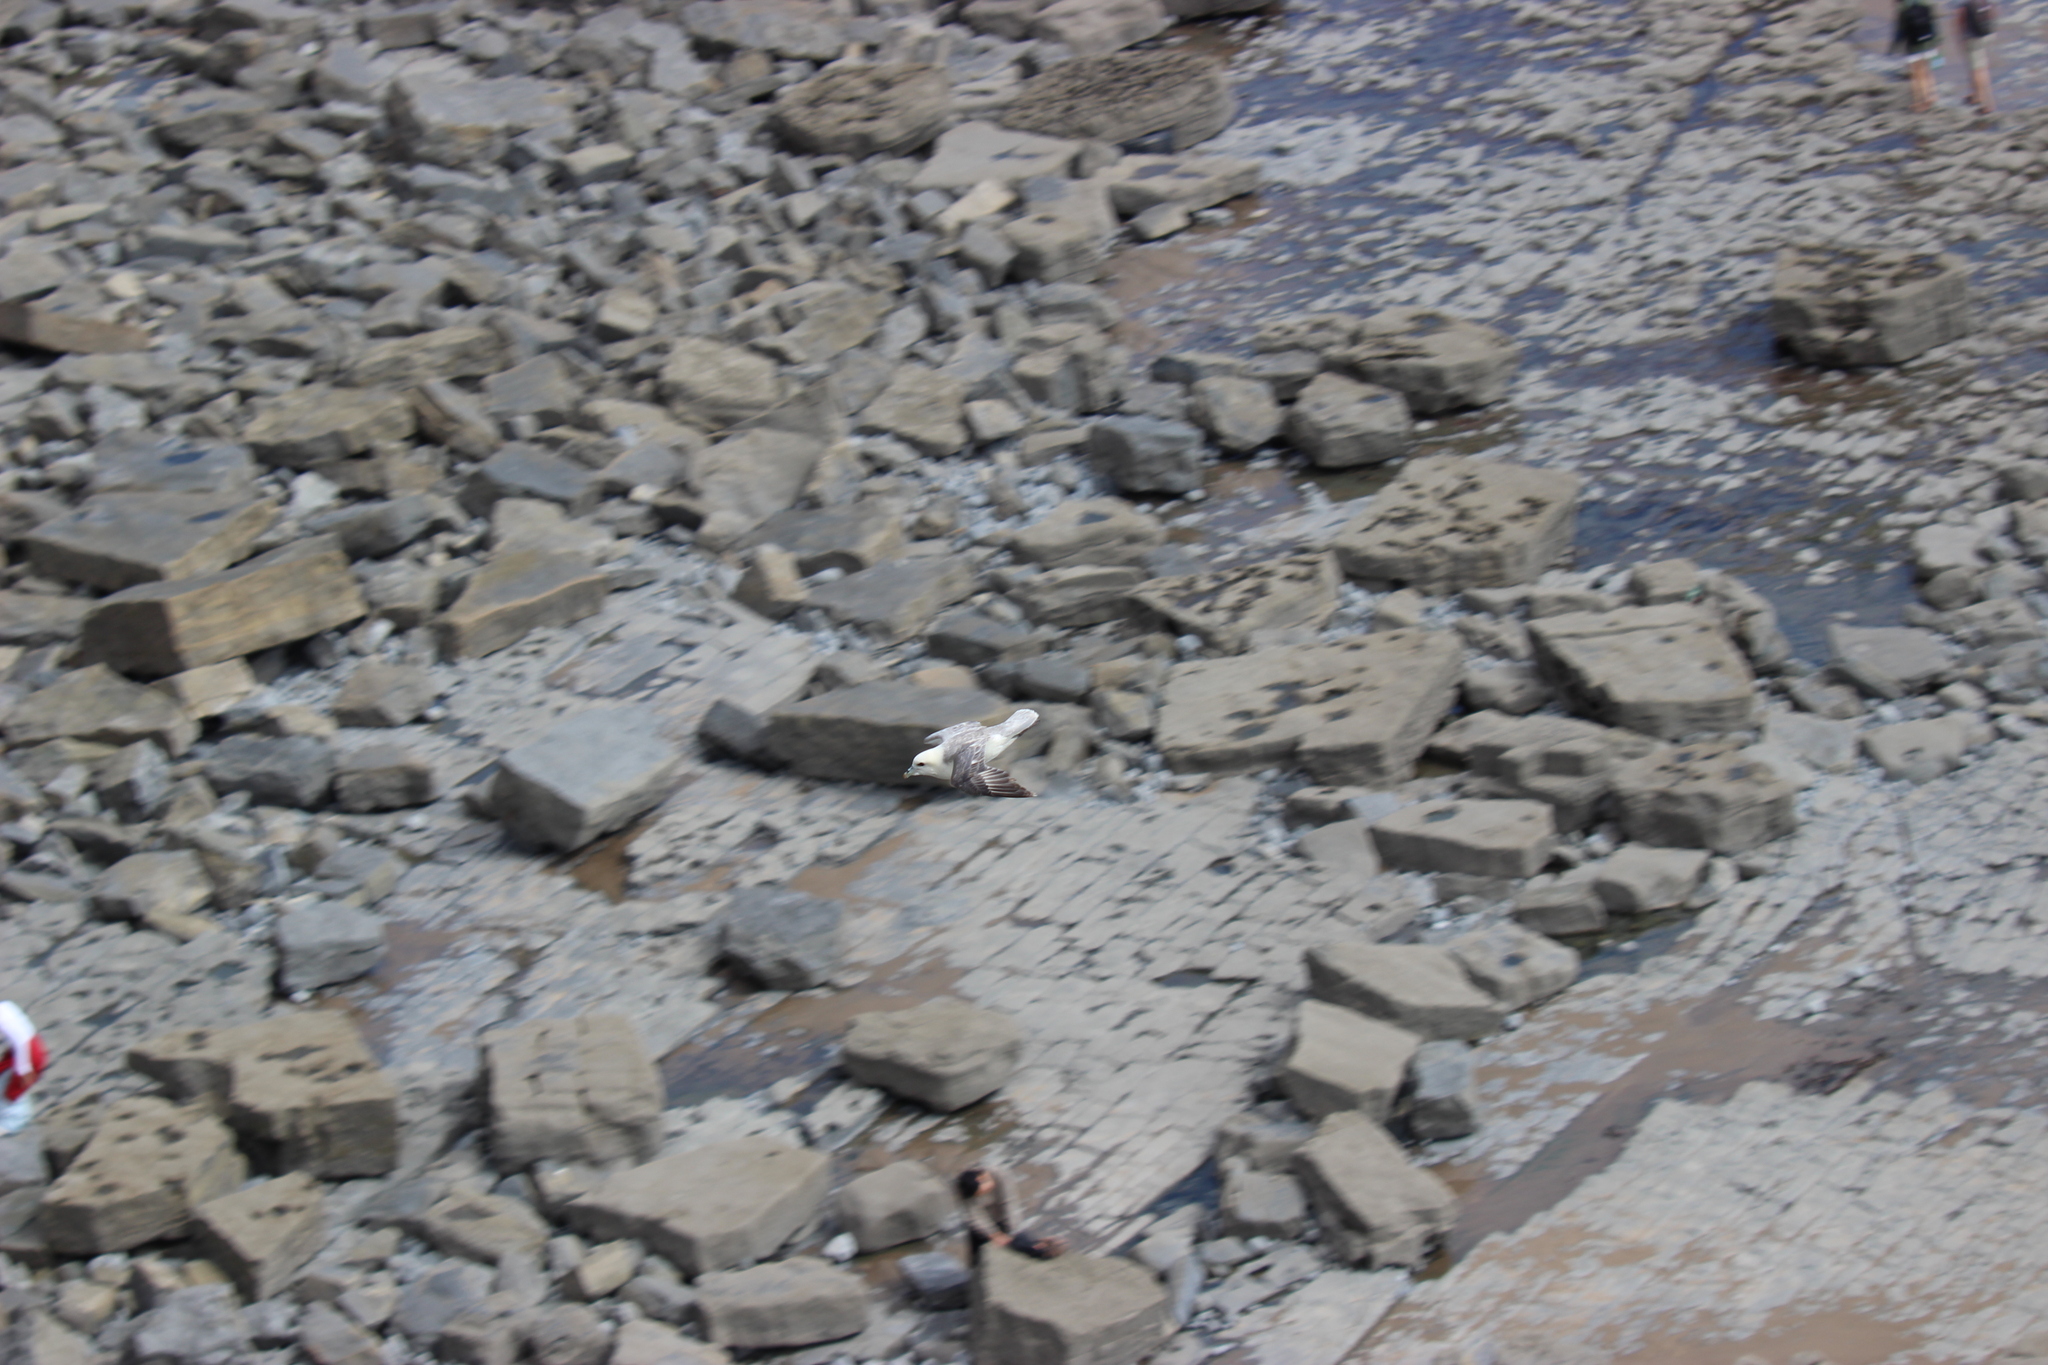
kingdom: Animalia
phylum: Chordata
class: Aves
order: Procellariiformes
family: Procellariidae
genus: Fulmarus
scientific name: Fulmarus glacialis
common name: Northern fulmar
